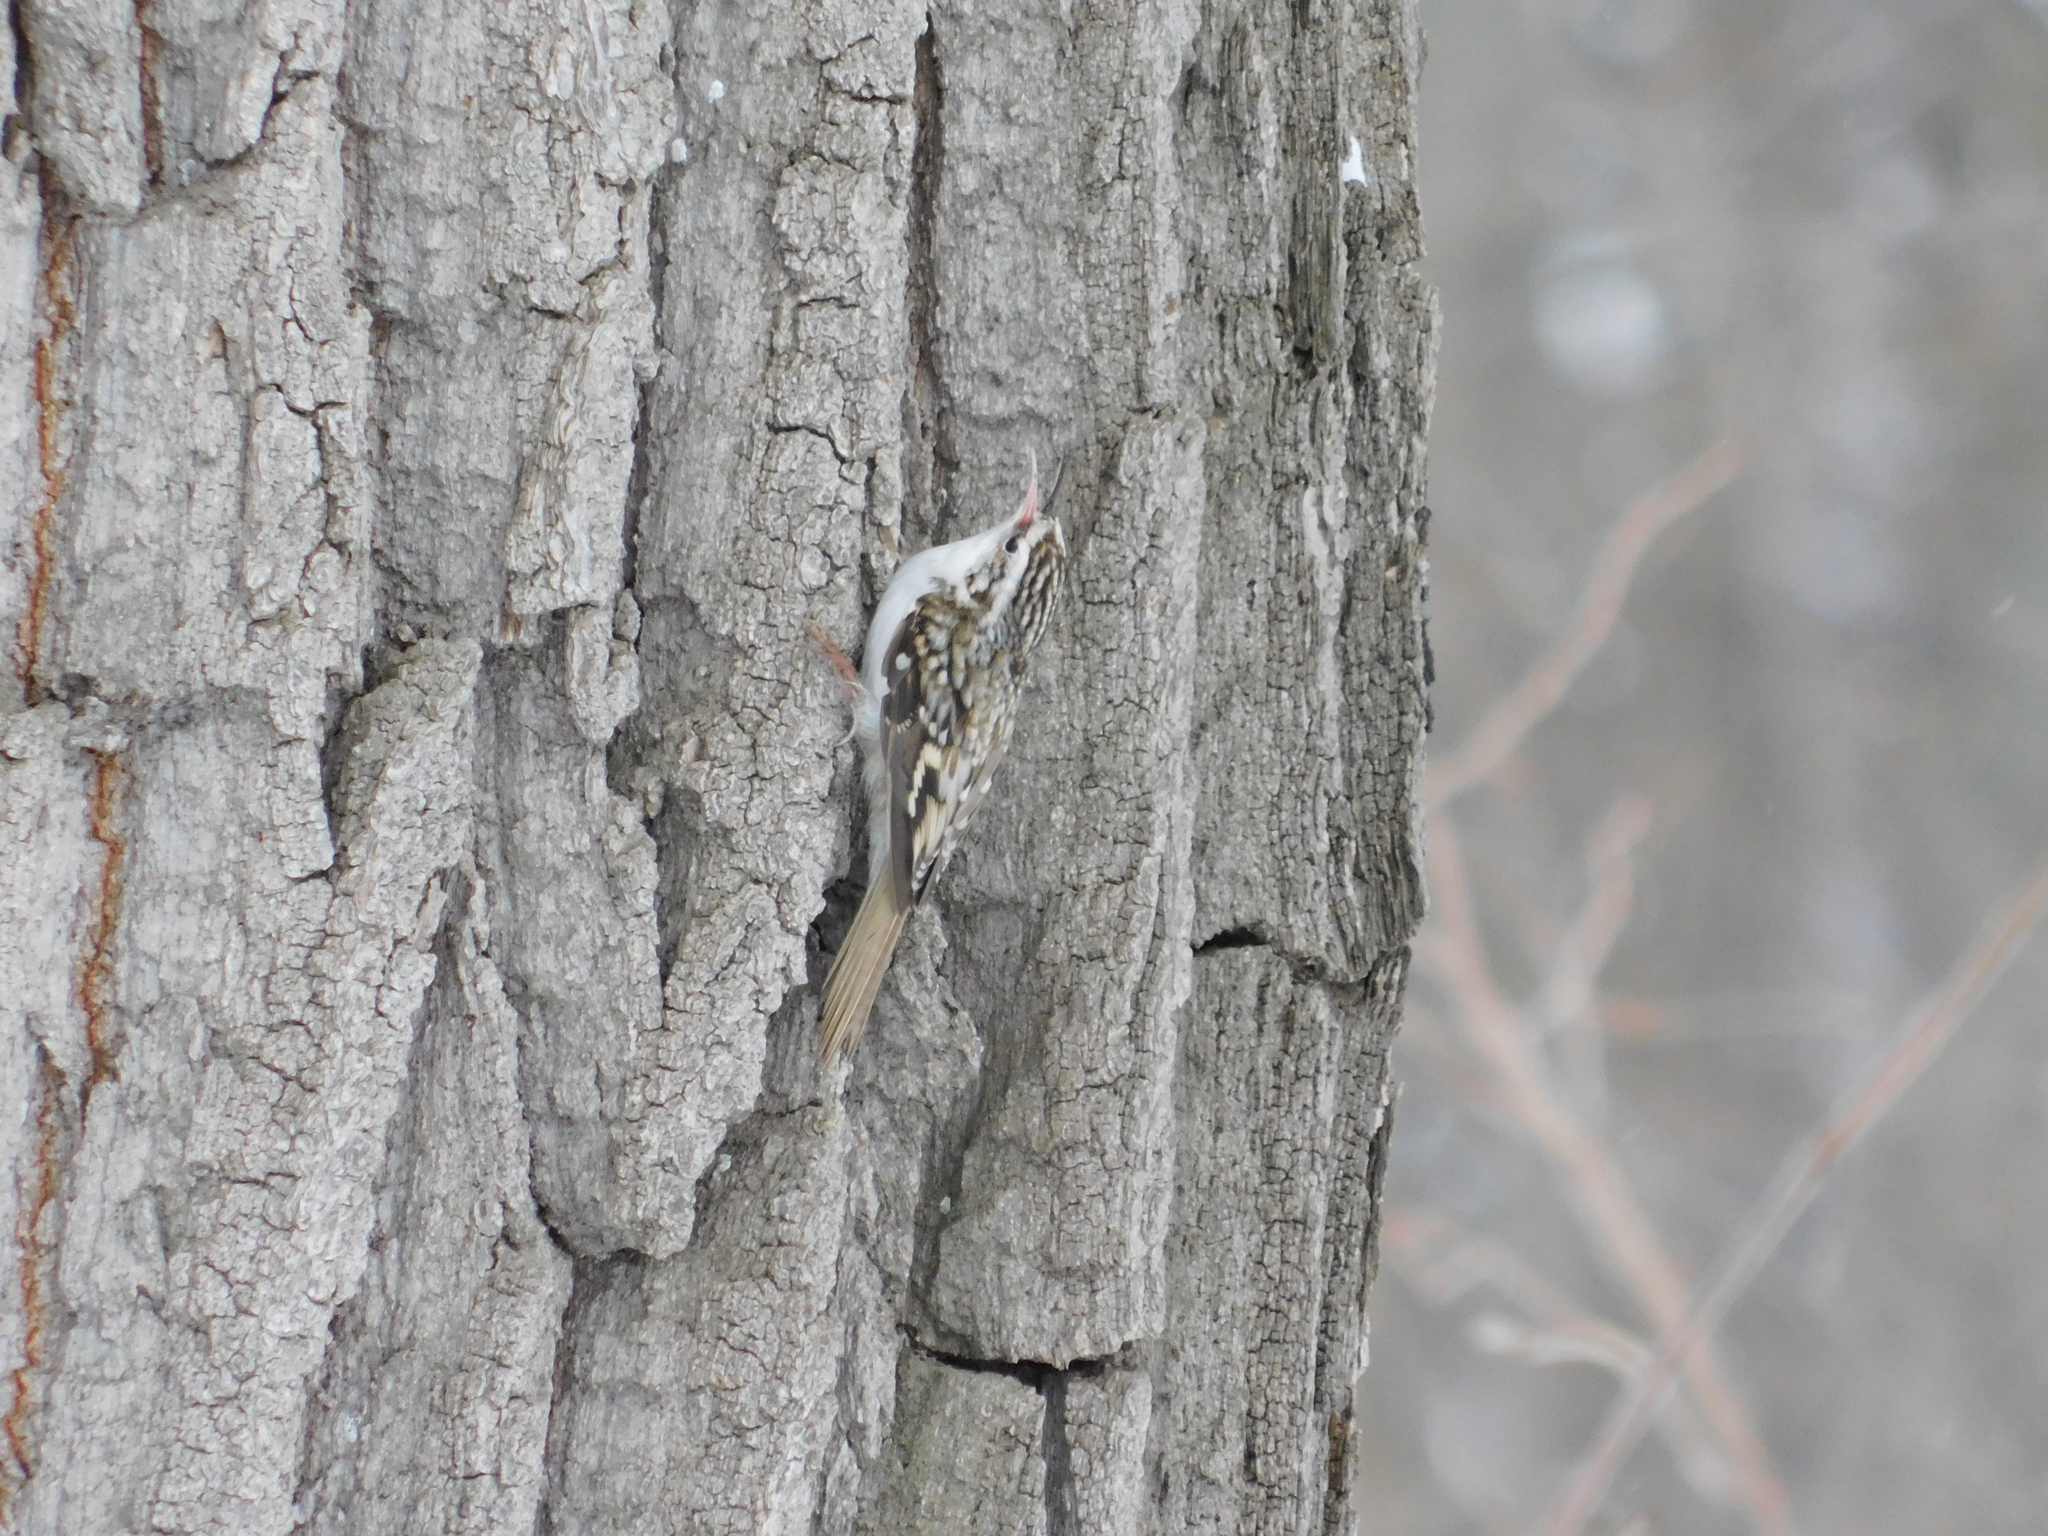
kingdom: Animalia
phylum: Chordata
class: Aves
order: Passeriformes
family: Certhiidae
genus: Certhia
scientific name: Certhia familiaris
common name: Eurasian treecreeper
